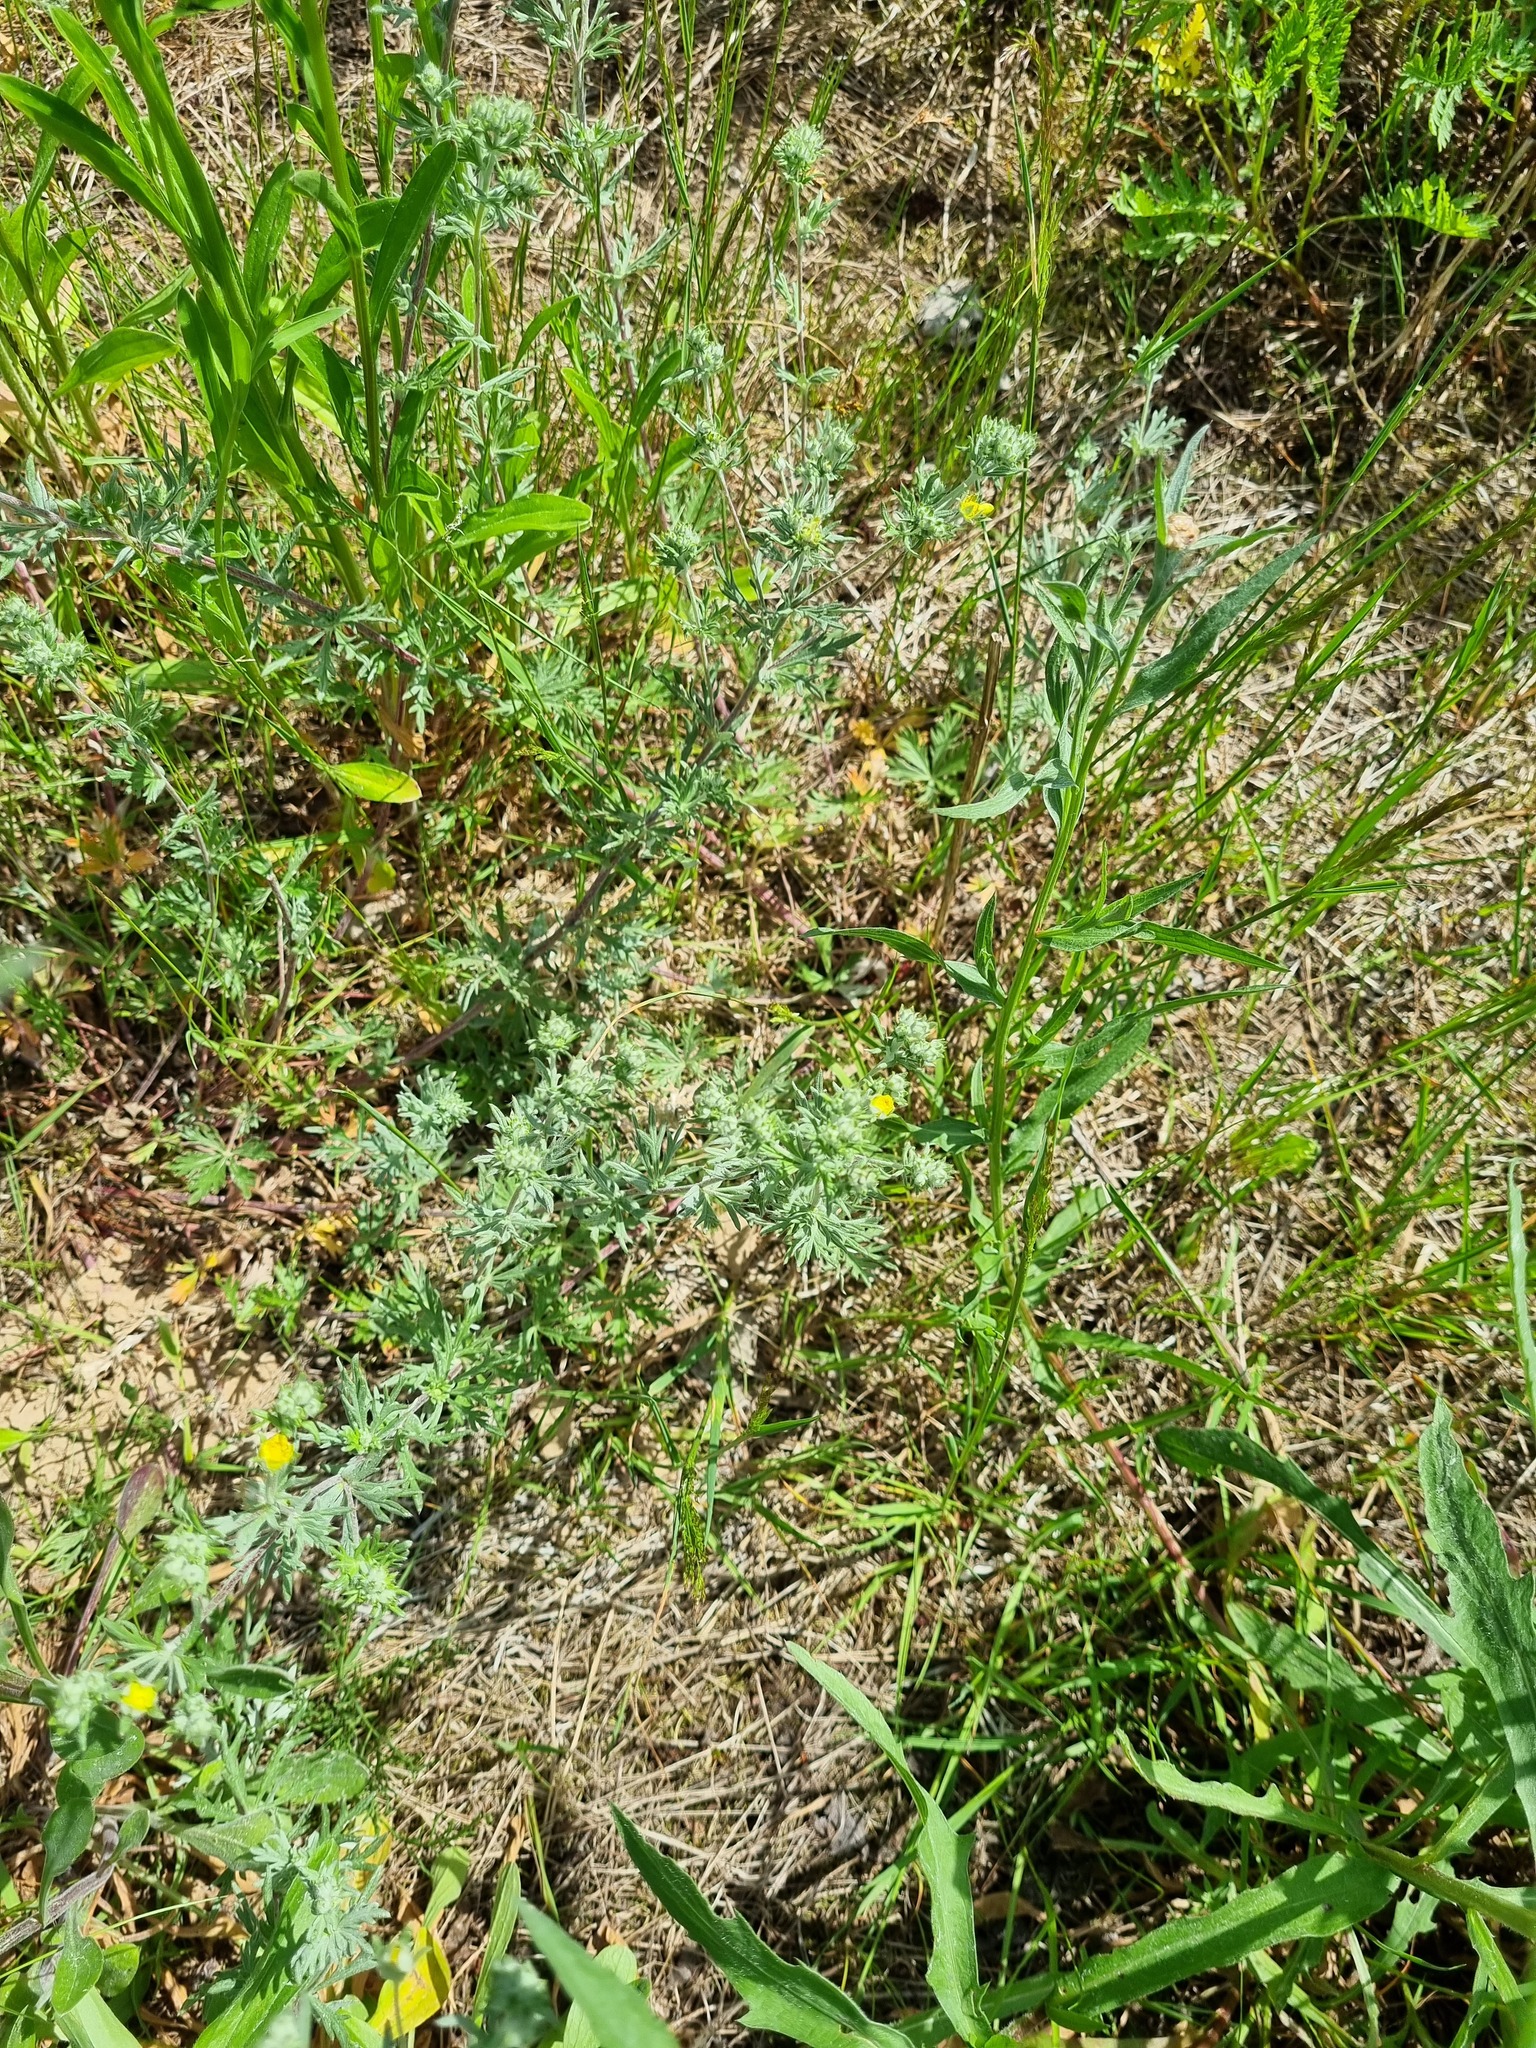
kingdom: Plantae
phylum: Tracheophyta
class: Magnoliopsida
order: Rosales
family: Rosaceae
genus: Potentilla
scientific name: Potentilla argentea
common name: Hoary cinquefoil
